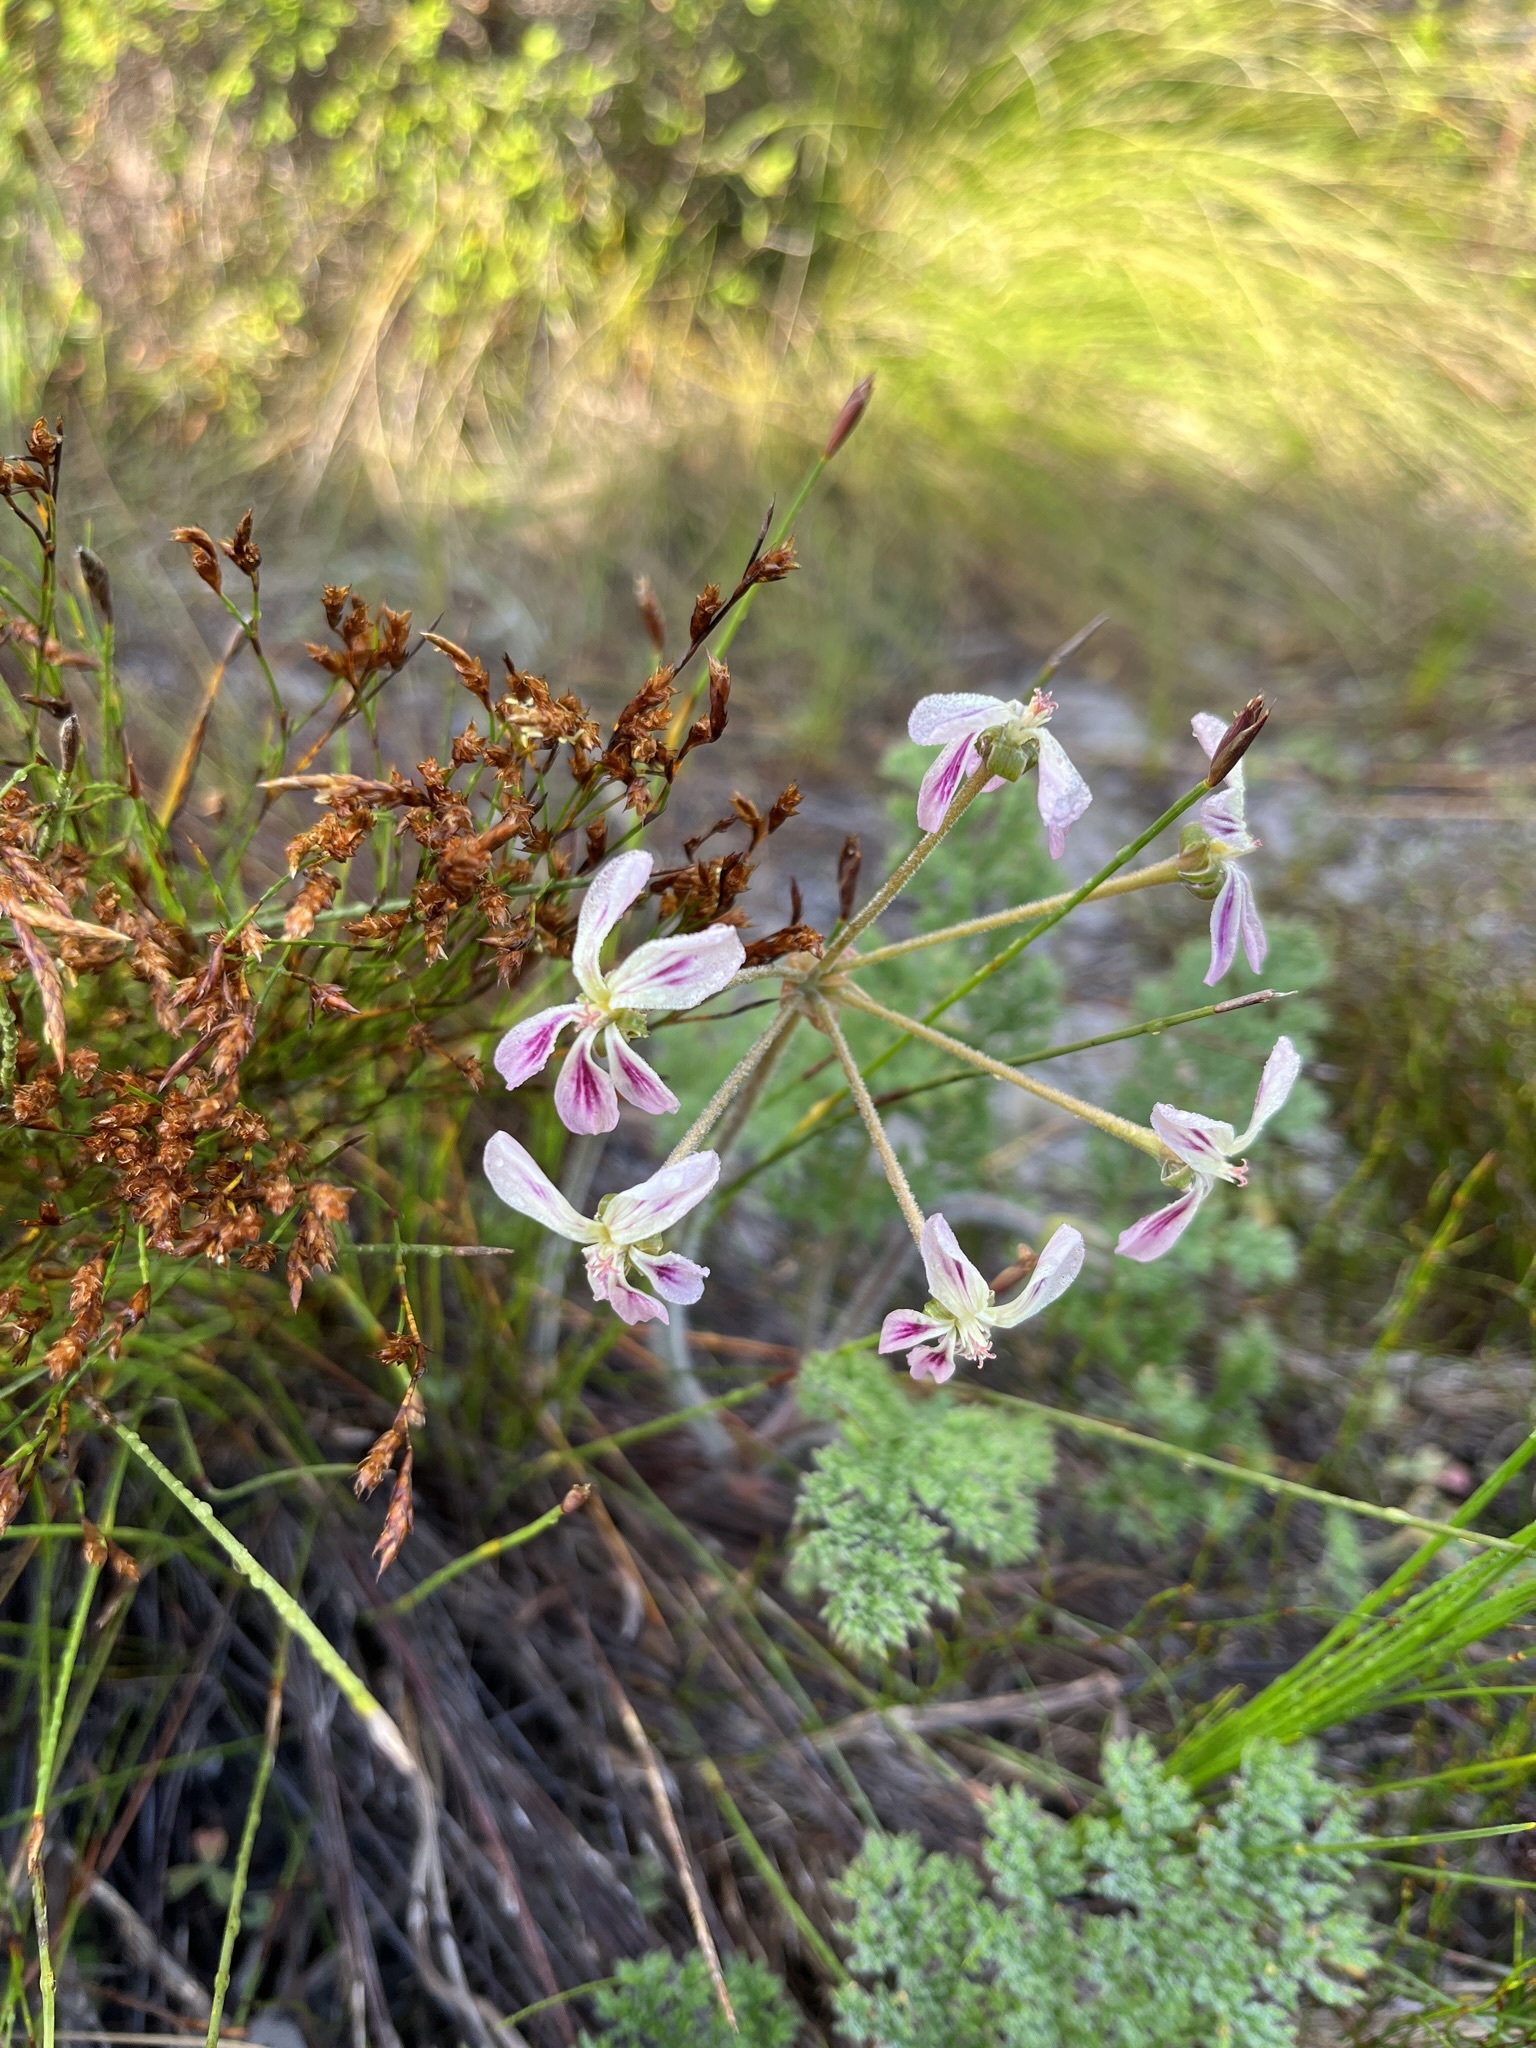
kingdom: Plantae
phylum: Tracheophyta
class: Magnoliopsida
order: Geraniales
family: Geraniaceae
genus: Pelargonium
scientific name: Pelargonium triste
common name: Night-scent pelargonium
